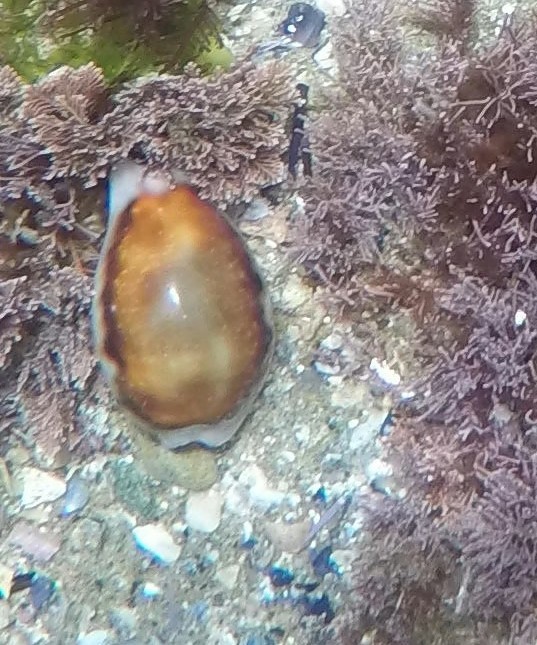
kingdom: Animalia
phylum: Mollusca
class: Gastropoda
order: Littorinimorpha
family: Cypraeidae
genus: Neobernaya
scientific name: Neobernaya spadicea
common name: Chestnut cowrie
